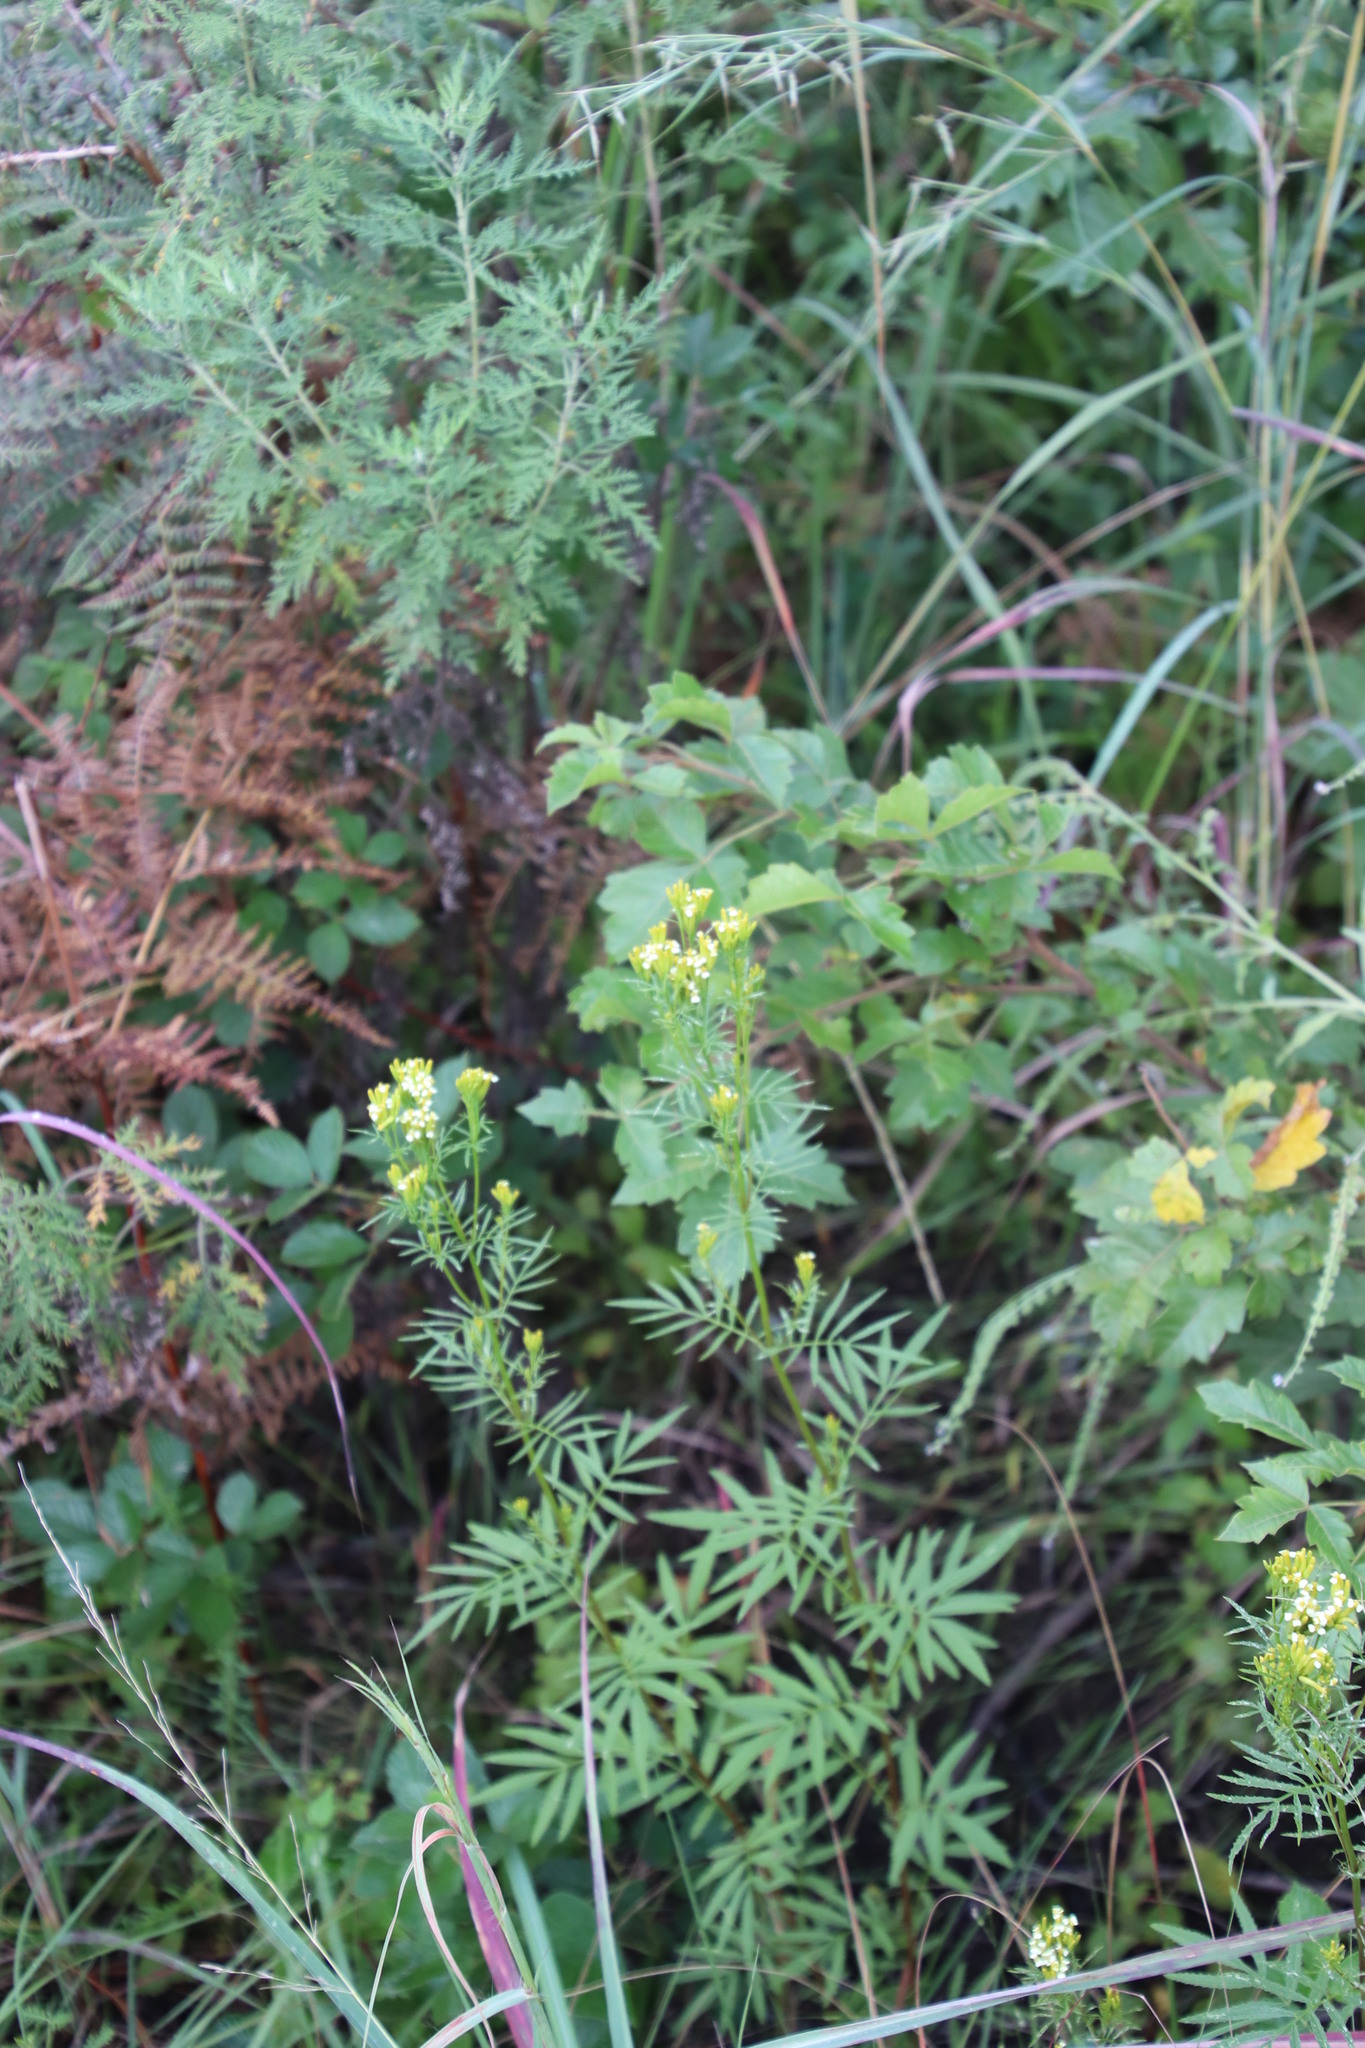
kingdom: Plantae
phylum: Tracheophyta
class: Magnoliopsida
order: Asterales
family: Asteraceae
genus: Tagetes
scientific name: Tagetes minuta
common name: Muster john henry
